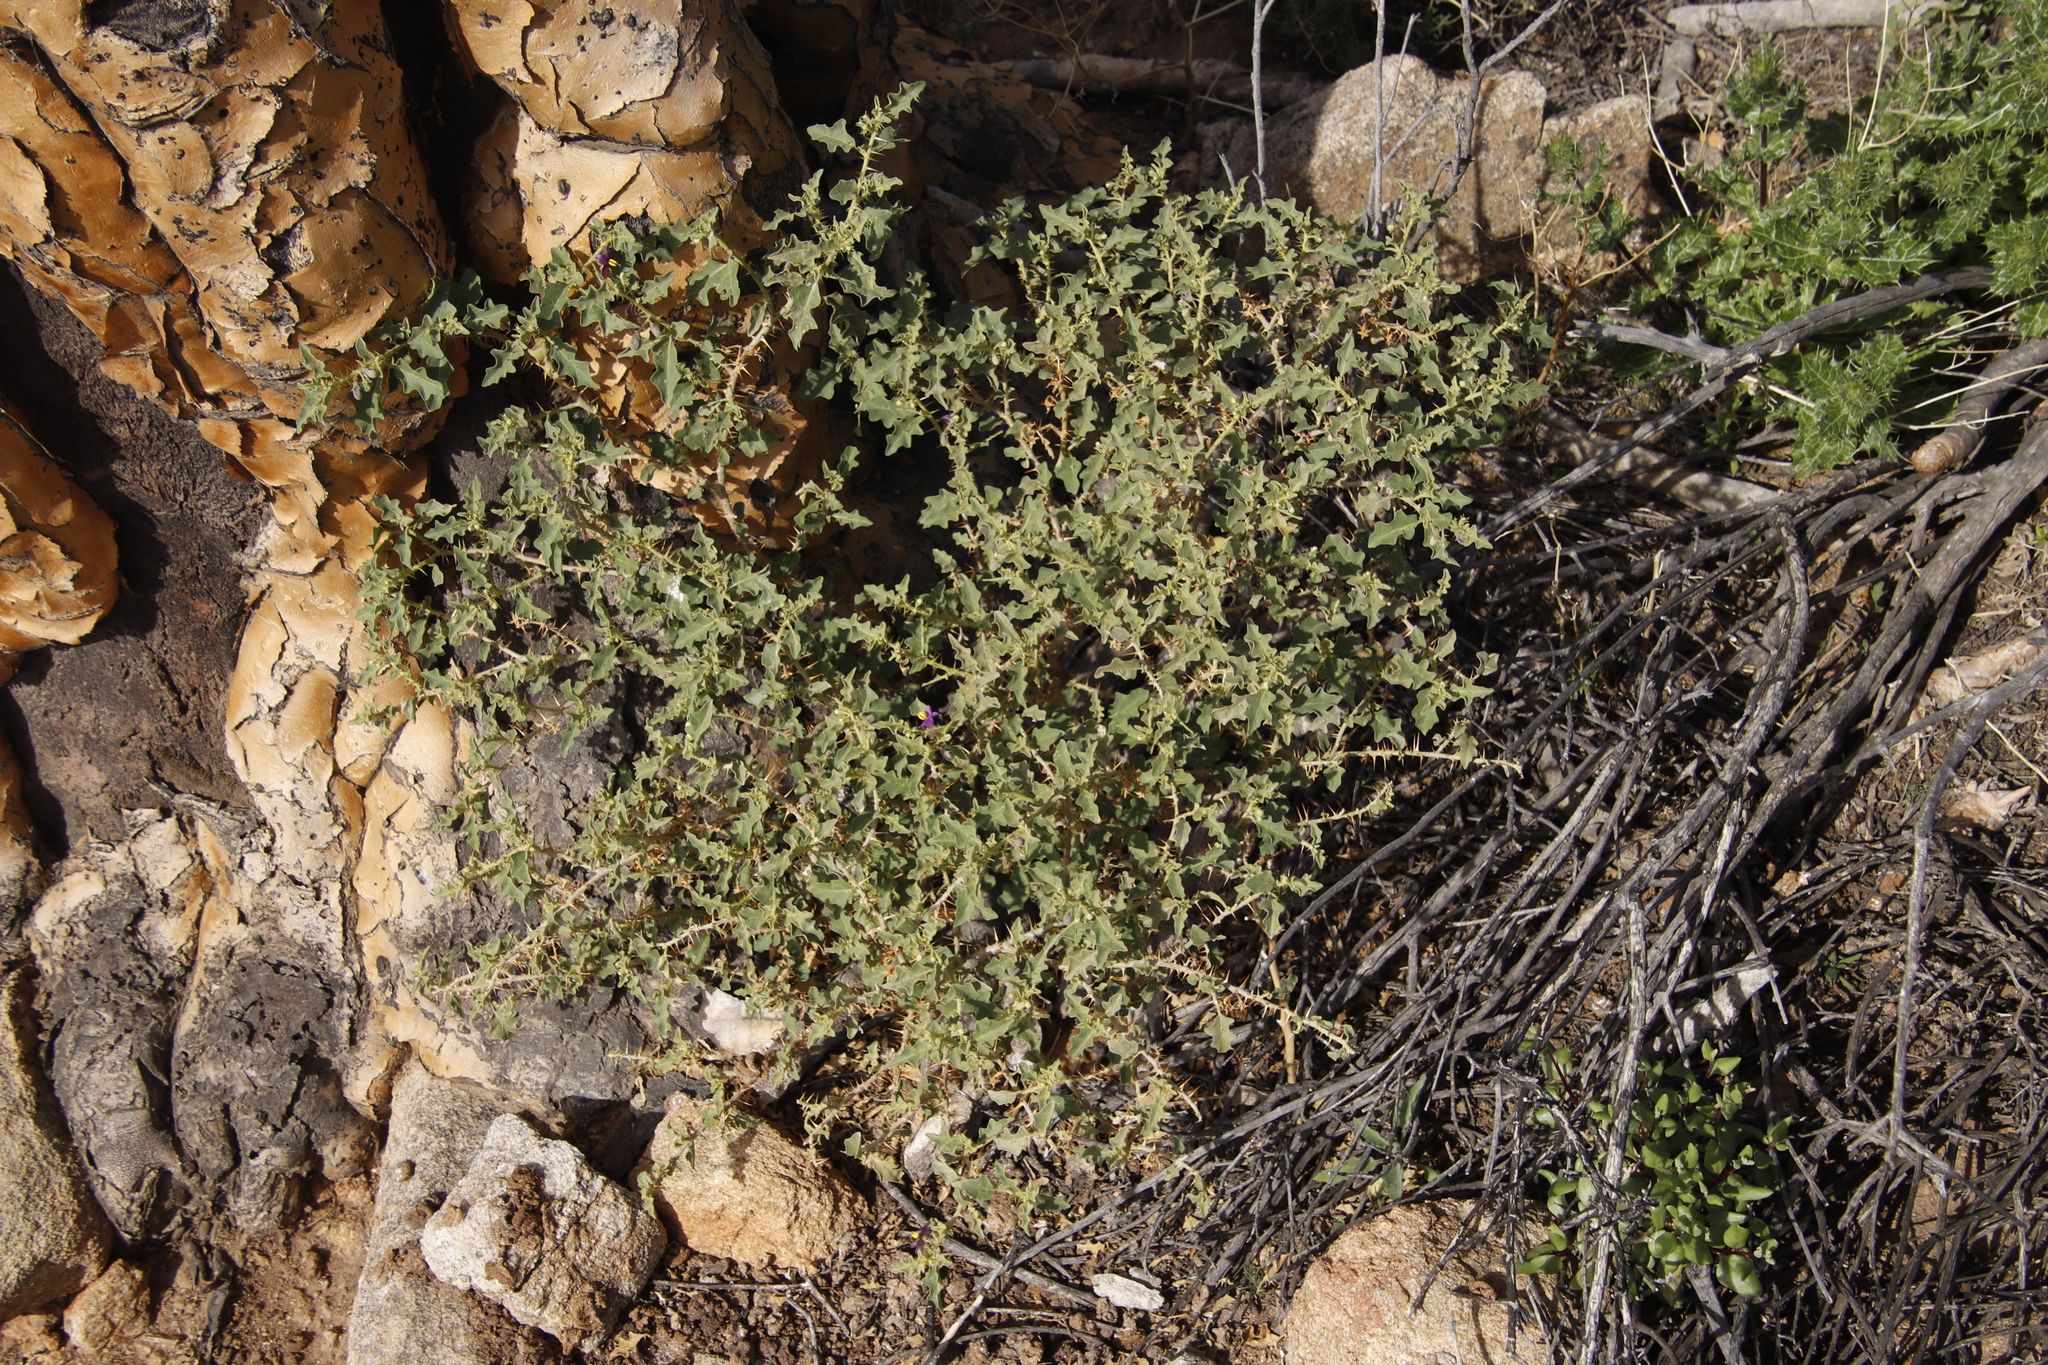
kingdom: Plantae
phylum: Tracheophyta
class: Magnoliopsida
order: Solanales
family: Solanaceae
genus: Solanum
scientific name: Solanum humile
